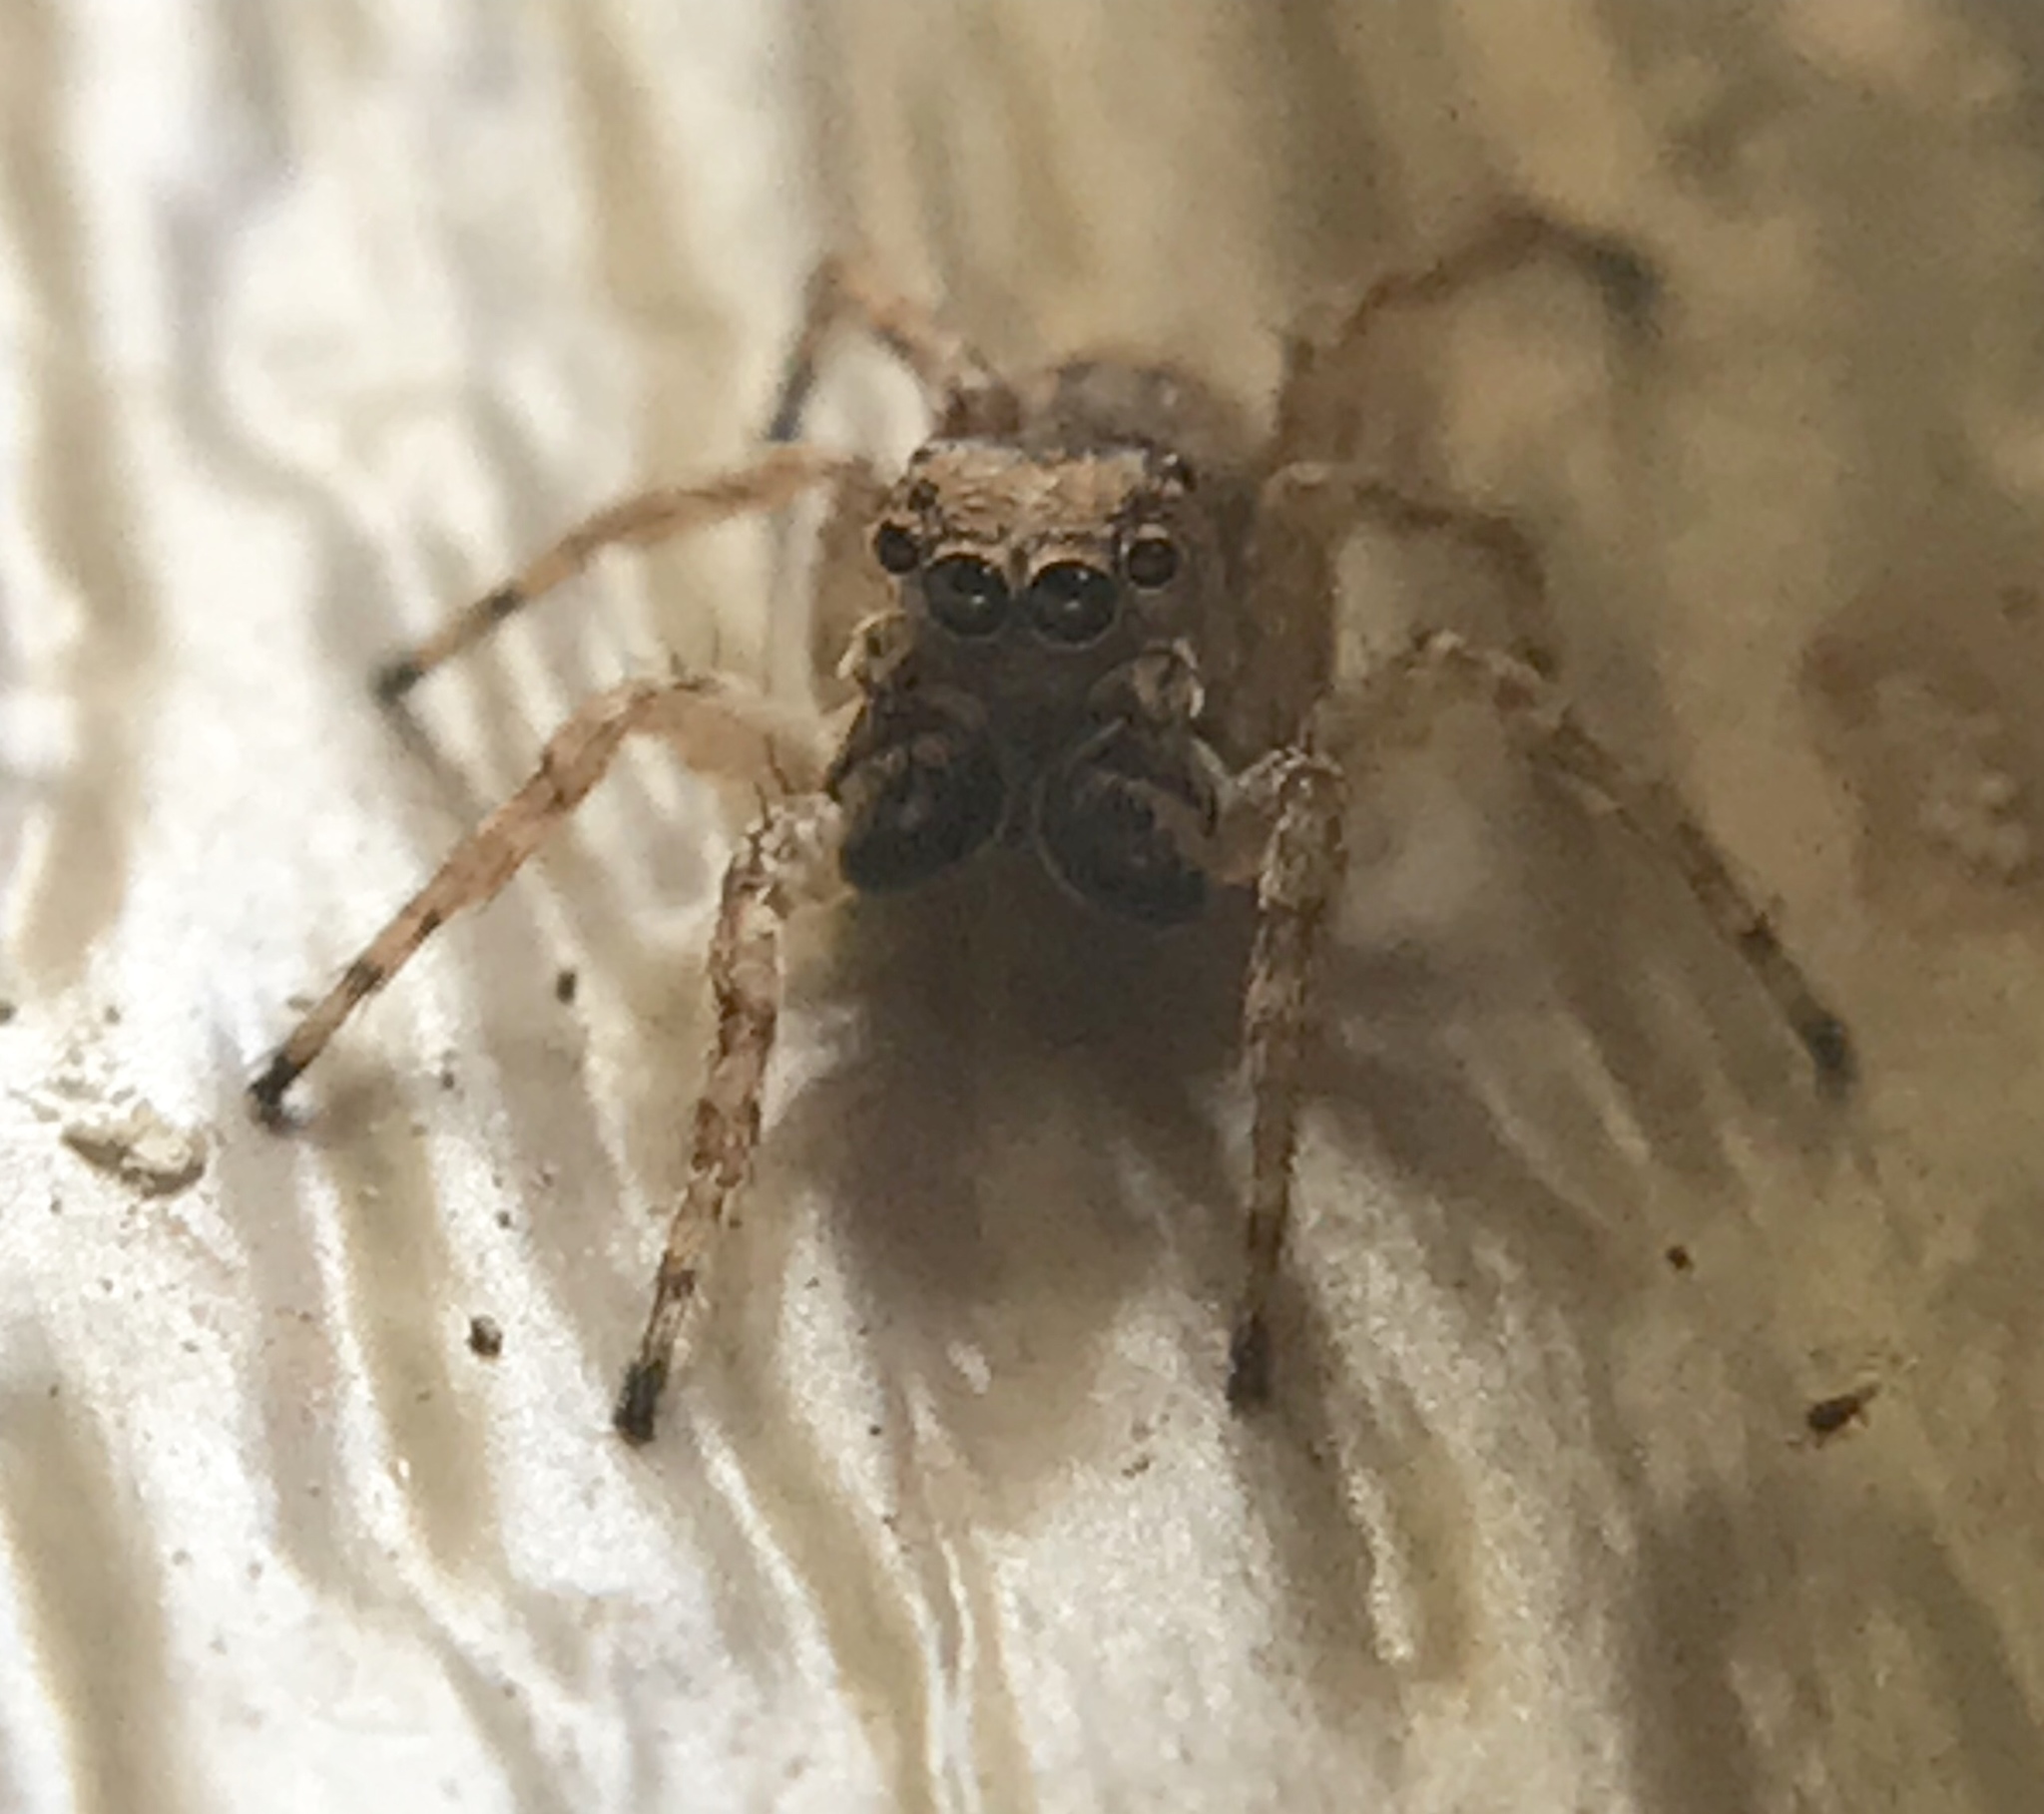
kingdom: Animalia
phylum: Arthropoda
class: Arachnida
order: Araneae
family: Salticidae
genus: Attulus
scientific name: Attulus fasciger
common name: Asiatic wall jumping spider
